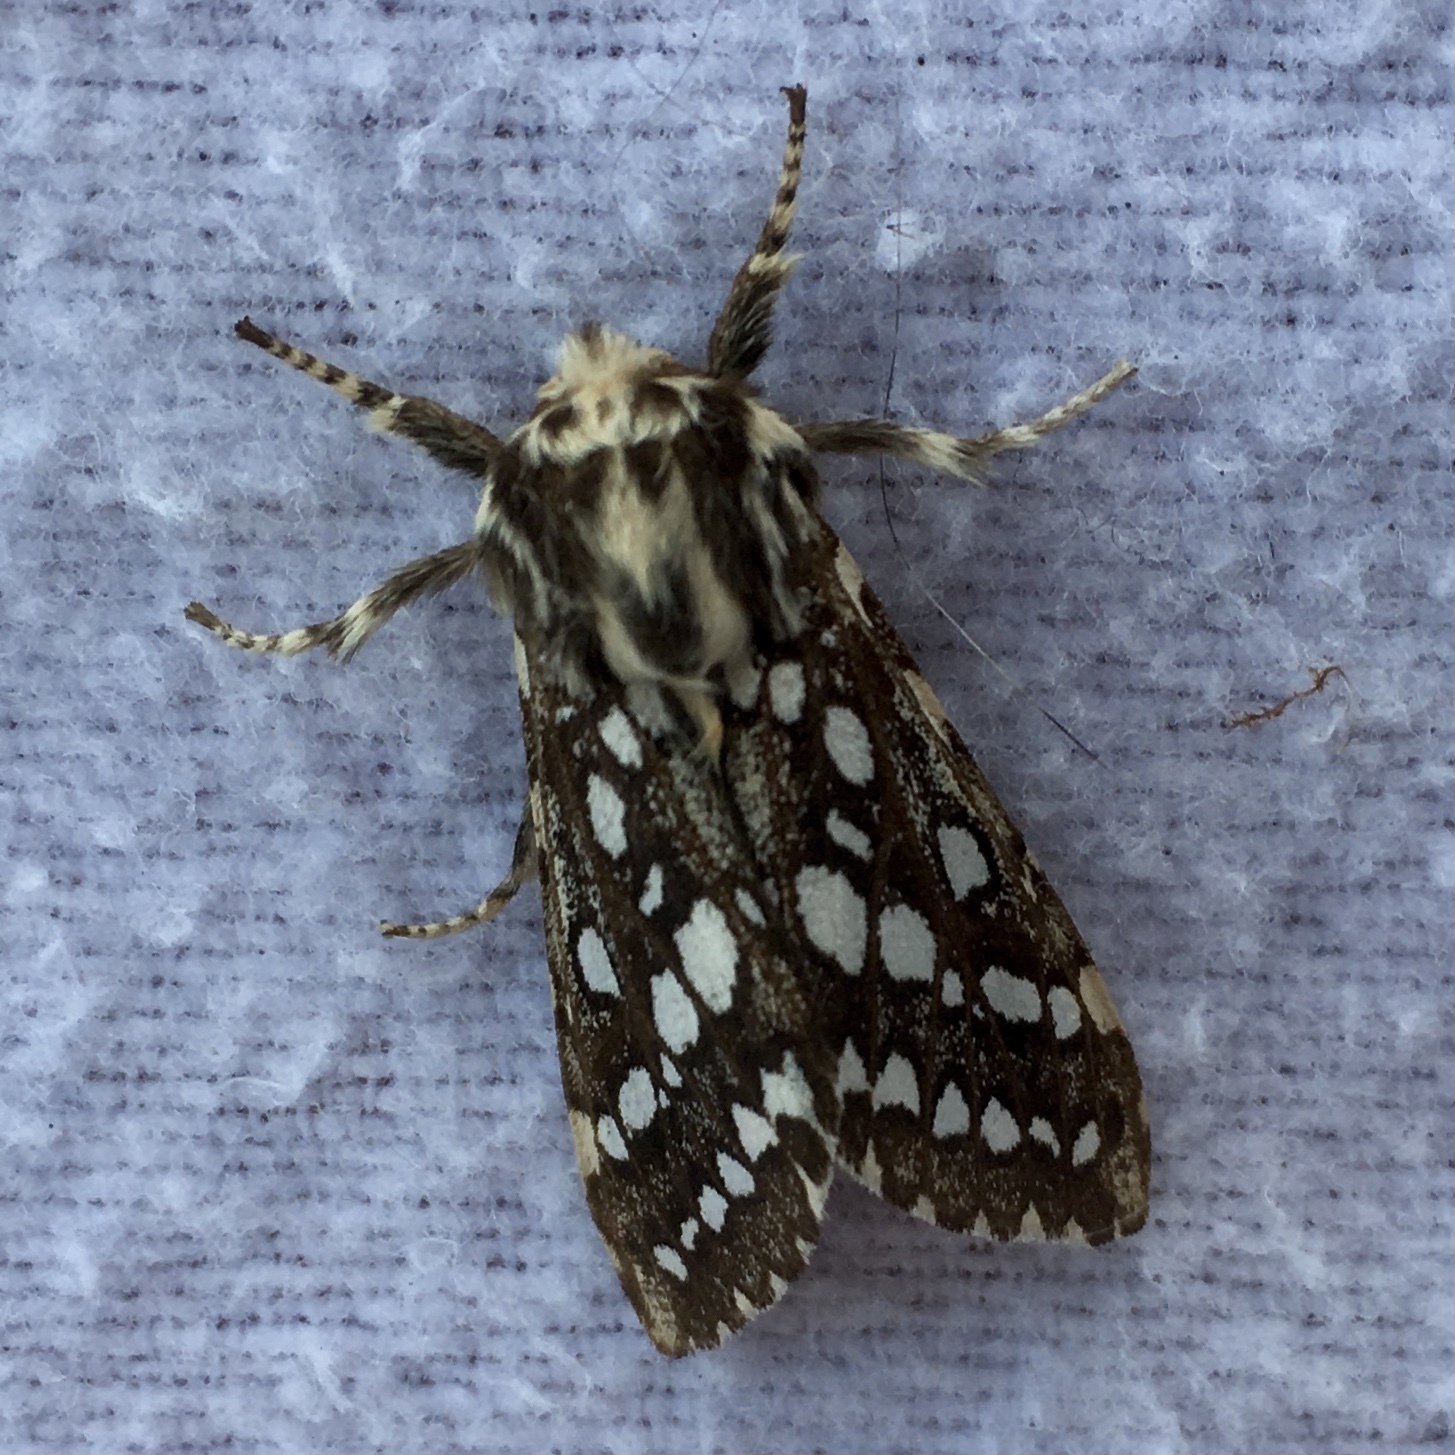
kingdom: Animalia
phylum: Arthropoda
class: Insecta
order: Lepidoptera
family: Erebidae
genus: Lophocampa
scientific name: Lophocampa argentata
